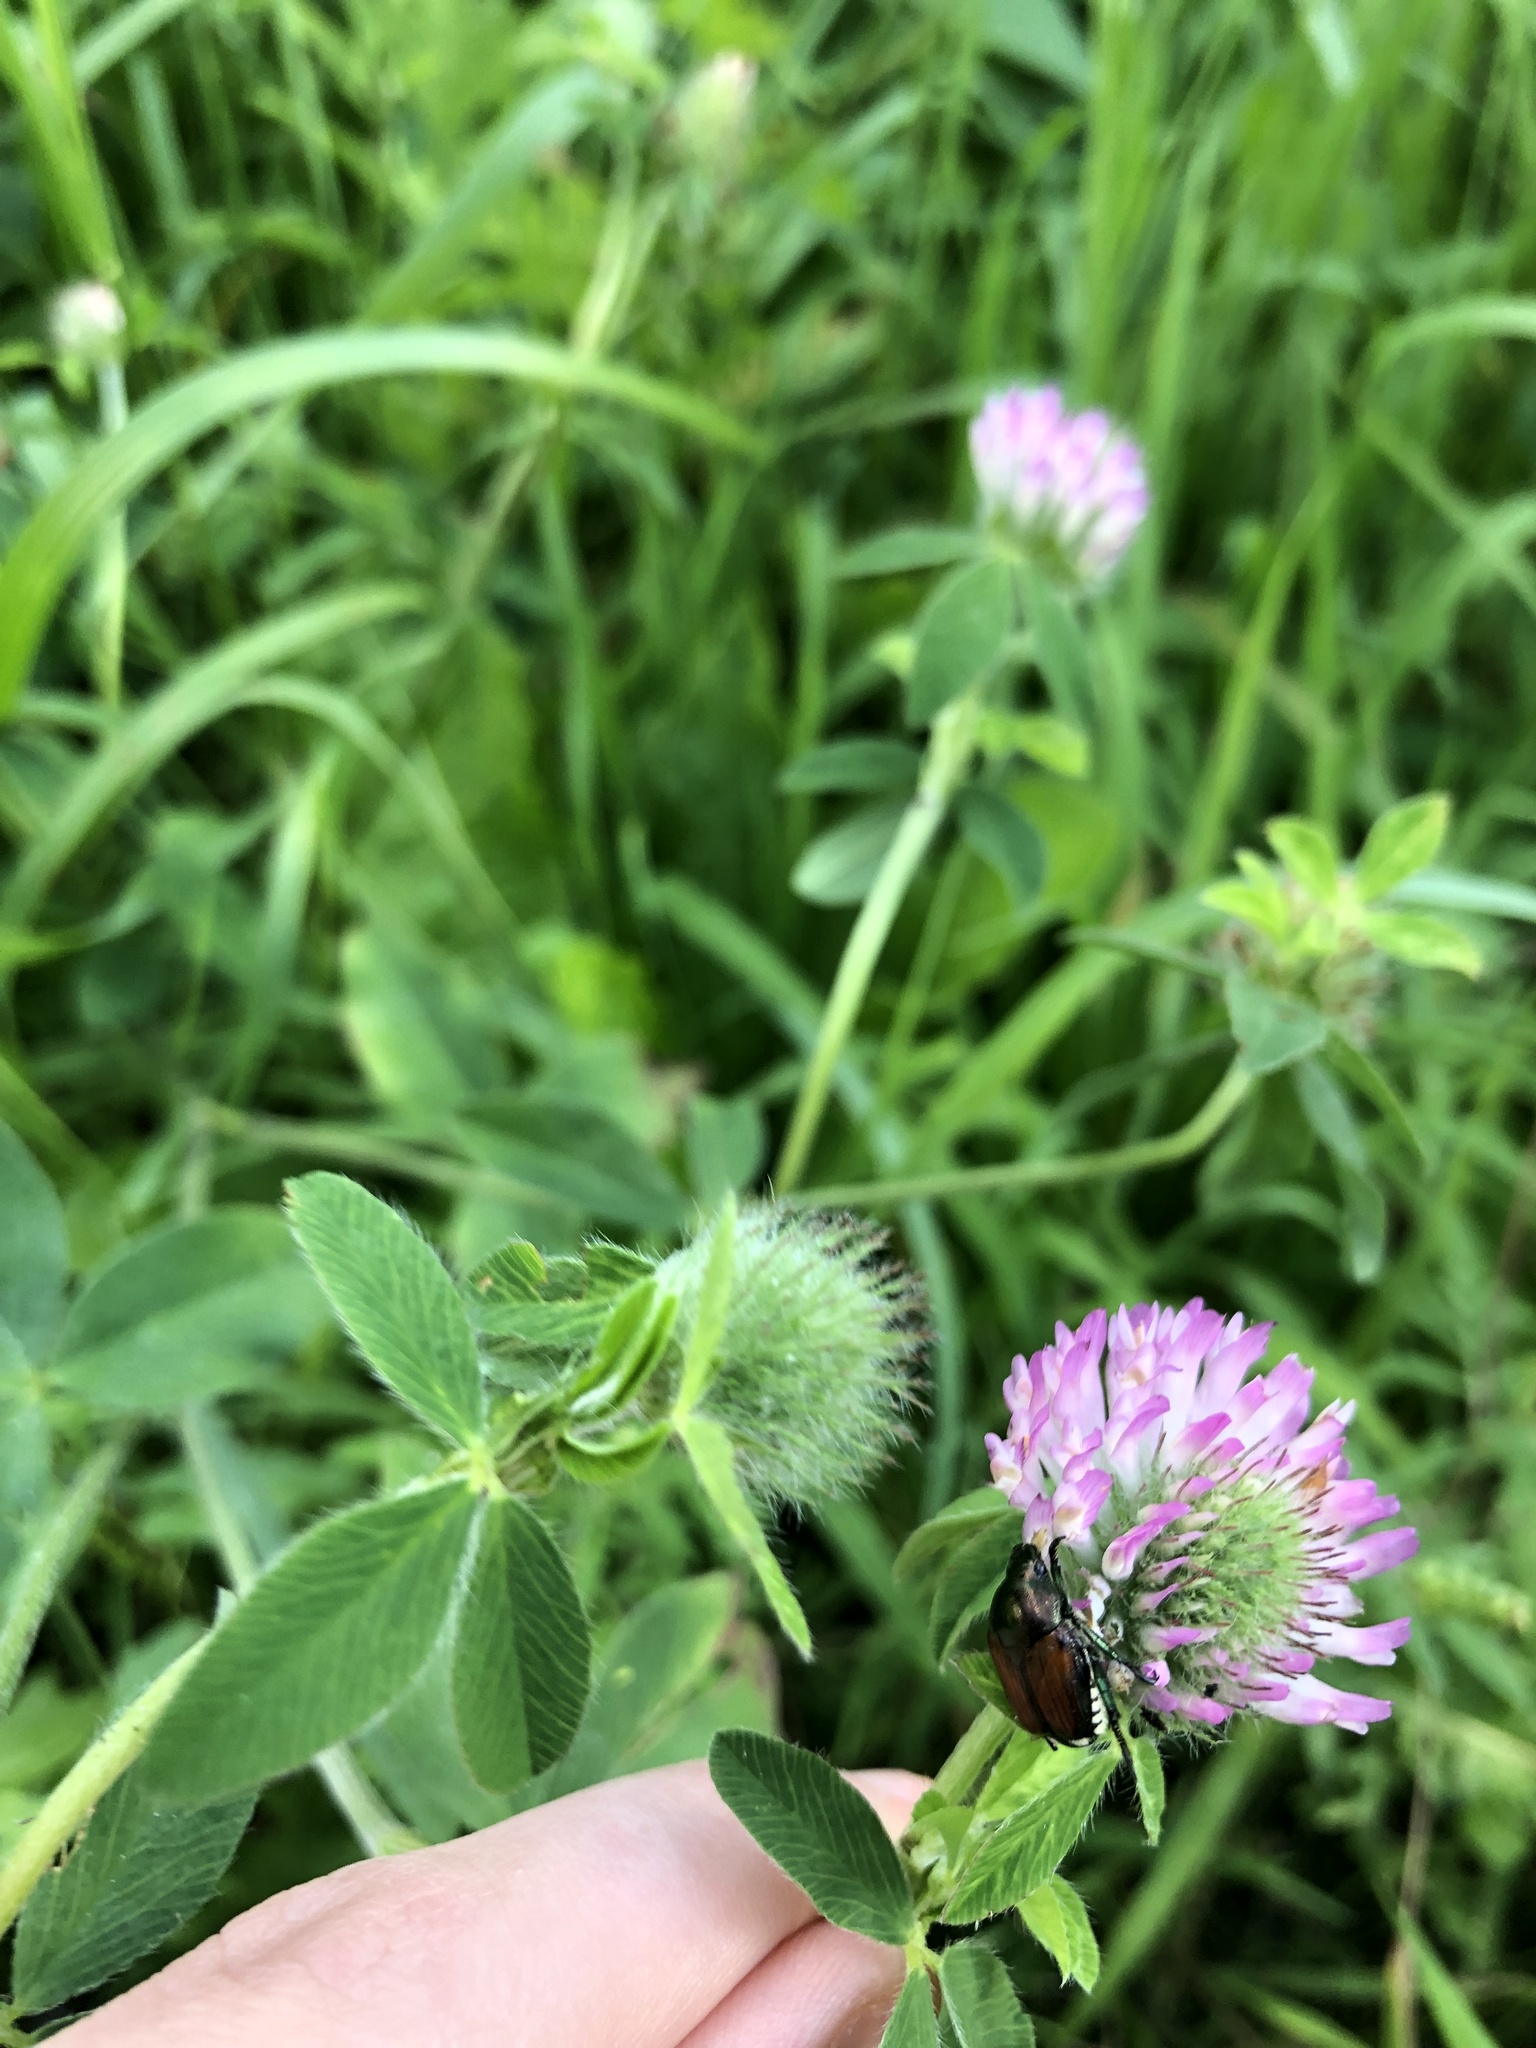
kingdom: Animalia
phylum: Arthropoda
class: Insecta
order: Coleoptera
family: Scarabaeidae
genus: Popillia
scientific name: Popillia japonica
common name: Japanese beetle
